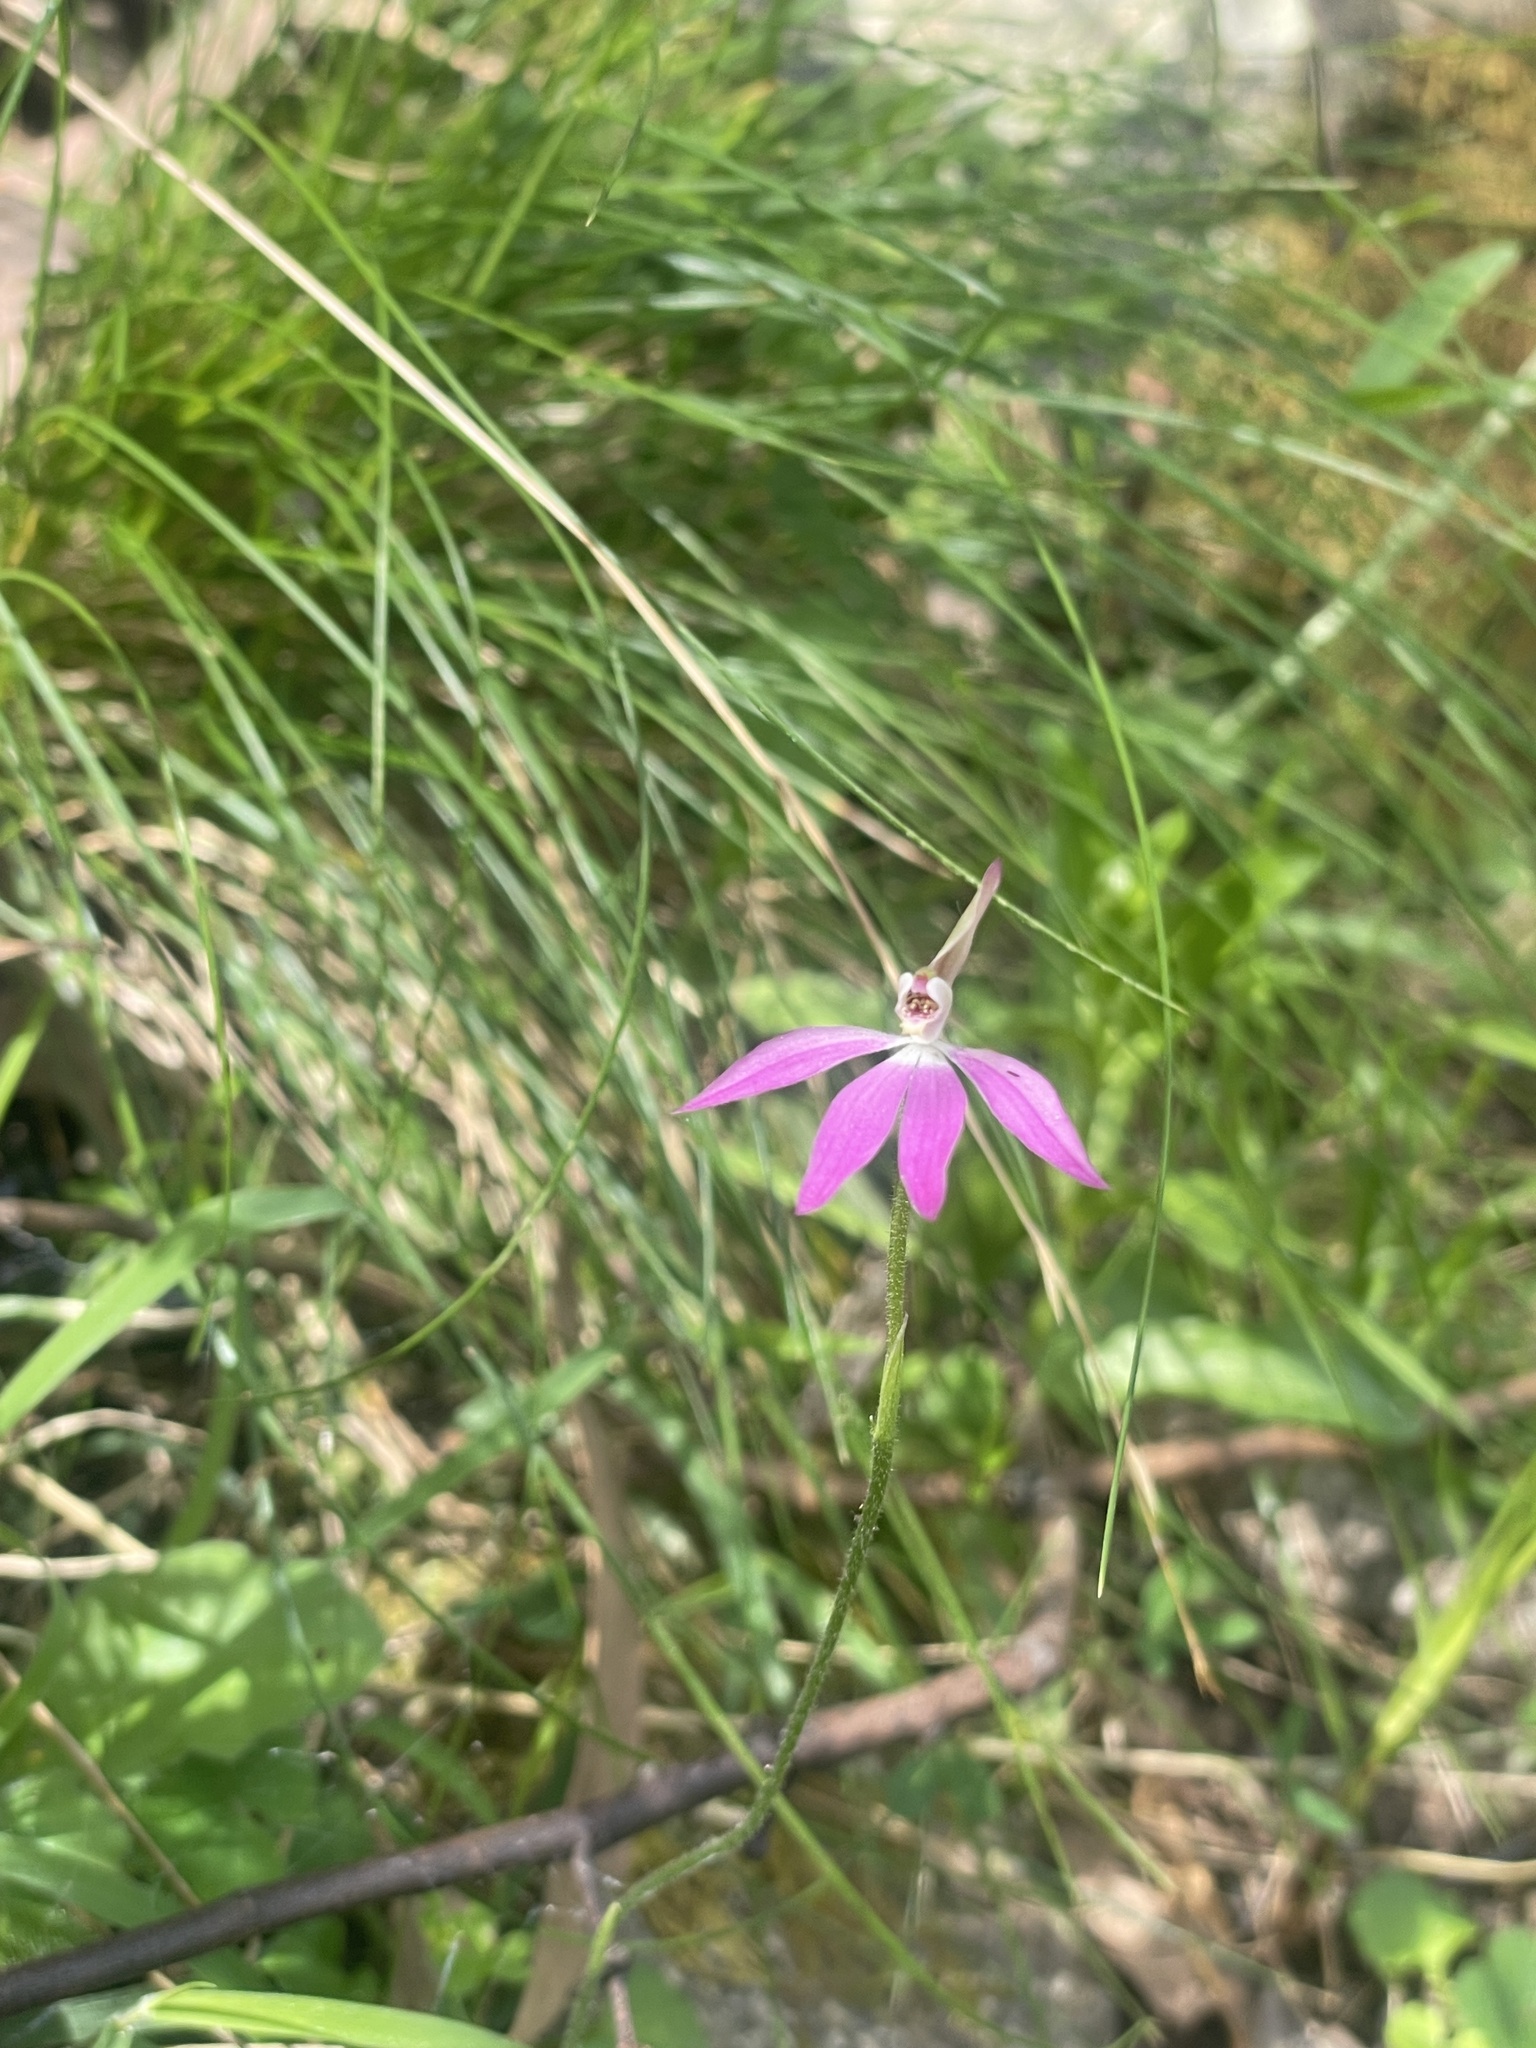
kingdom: Plantae
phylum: Tracheophyta
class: Liliopsida
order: Asparagales
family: Orchidaceae
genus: Caladenia
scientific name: Caladenia carnea
